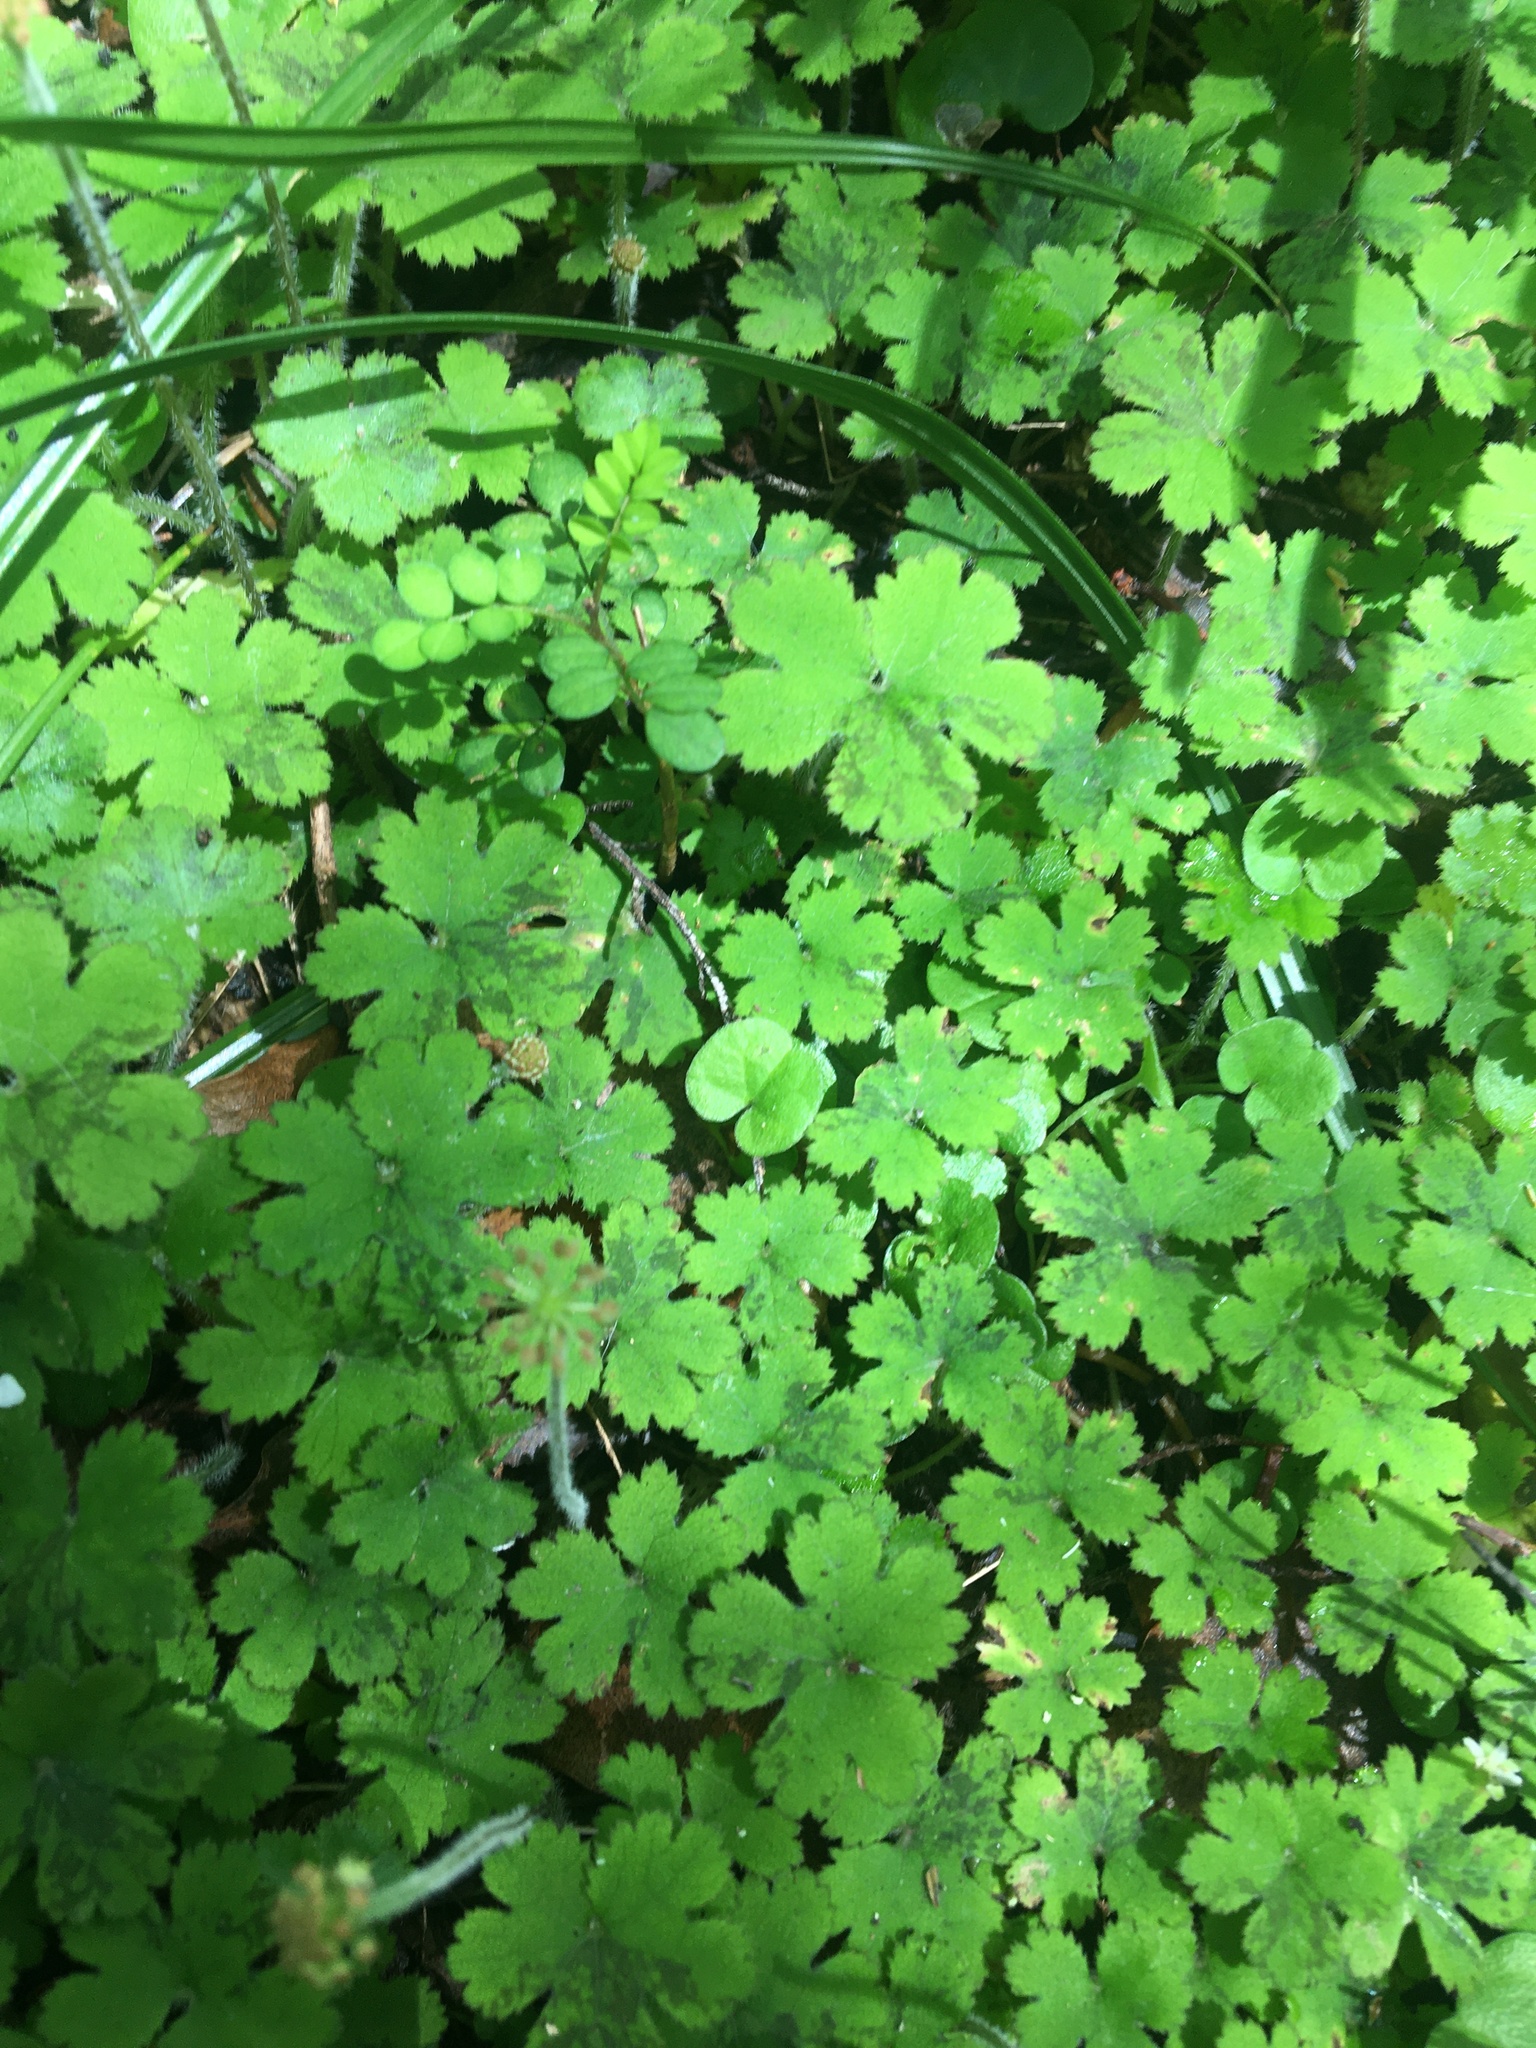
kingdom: Plantae
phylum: Tracheophyta
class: Magnoliopsida
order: Apiales
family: Araliaceae
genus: Hydrocotyle
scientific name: Hydrocotyle elongata
